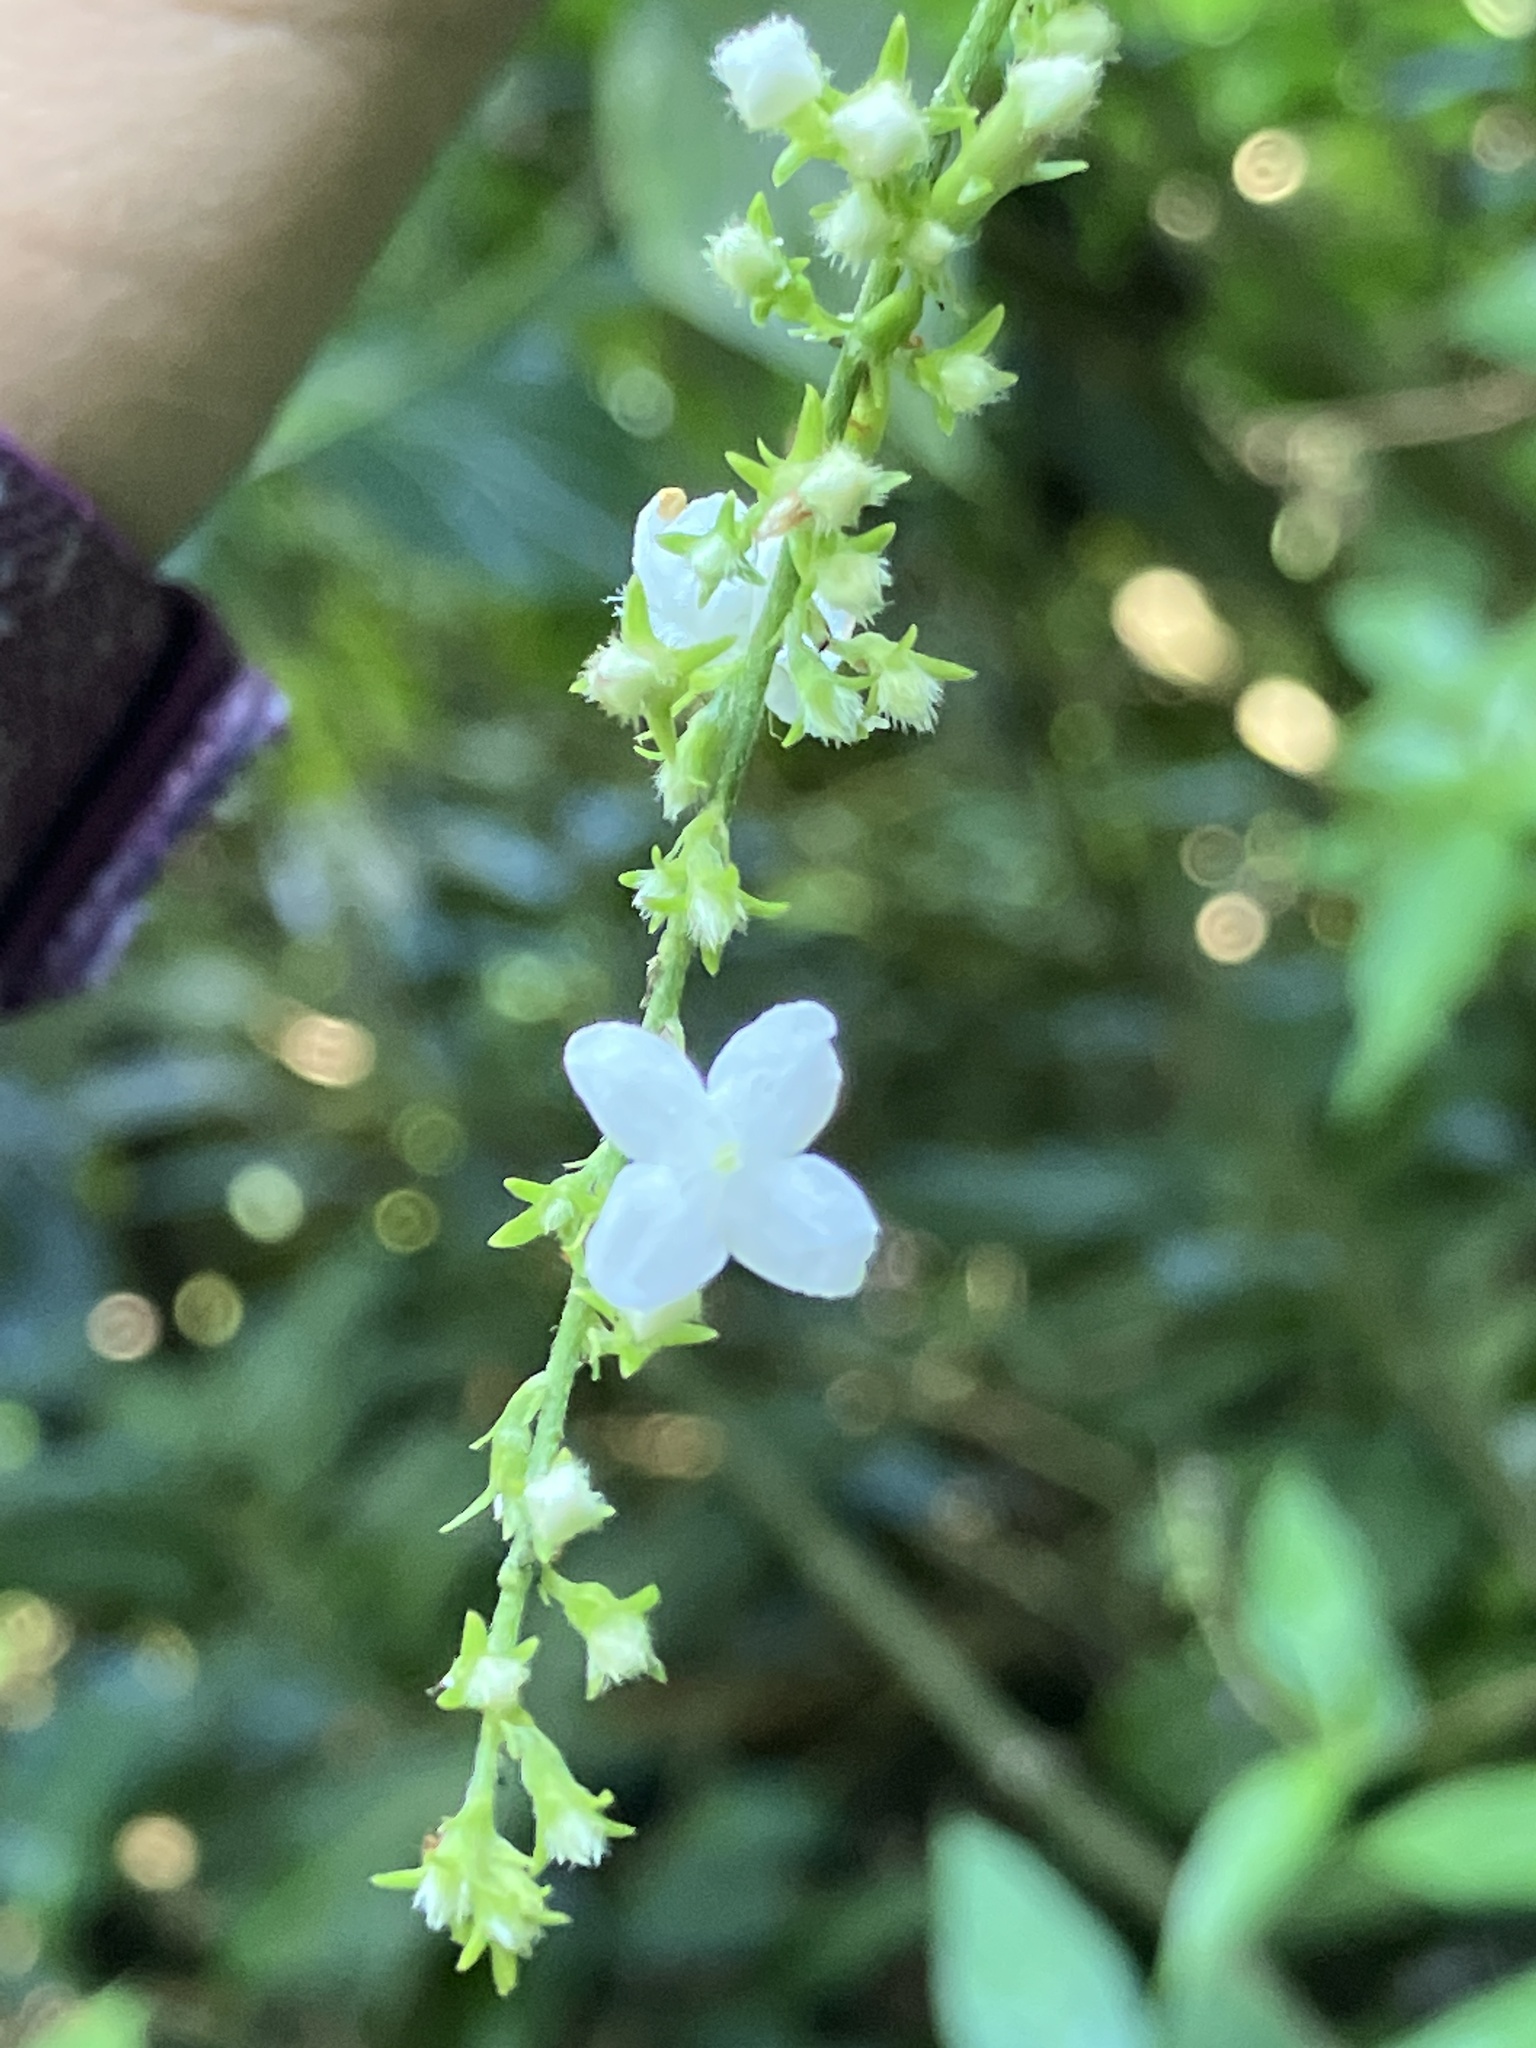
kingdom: Plantae
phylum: Tracheophyta
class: Magnoliopsida
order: Gentianales
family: Rubiaceae
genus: Gonzalagunia
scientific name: Gonzalagunia hirsuta
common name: Mata de mariposa
